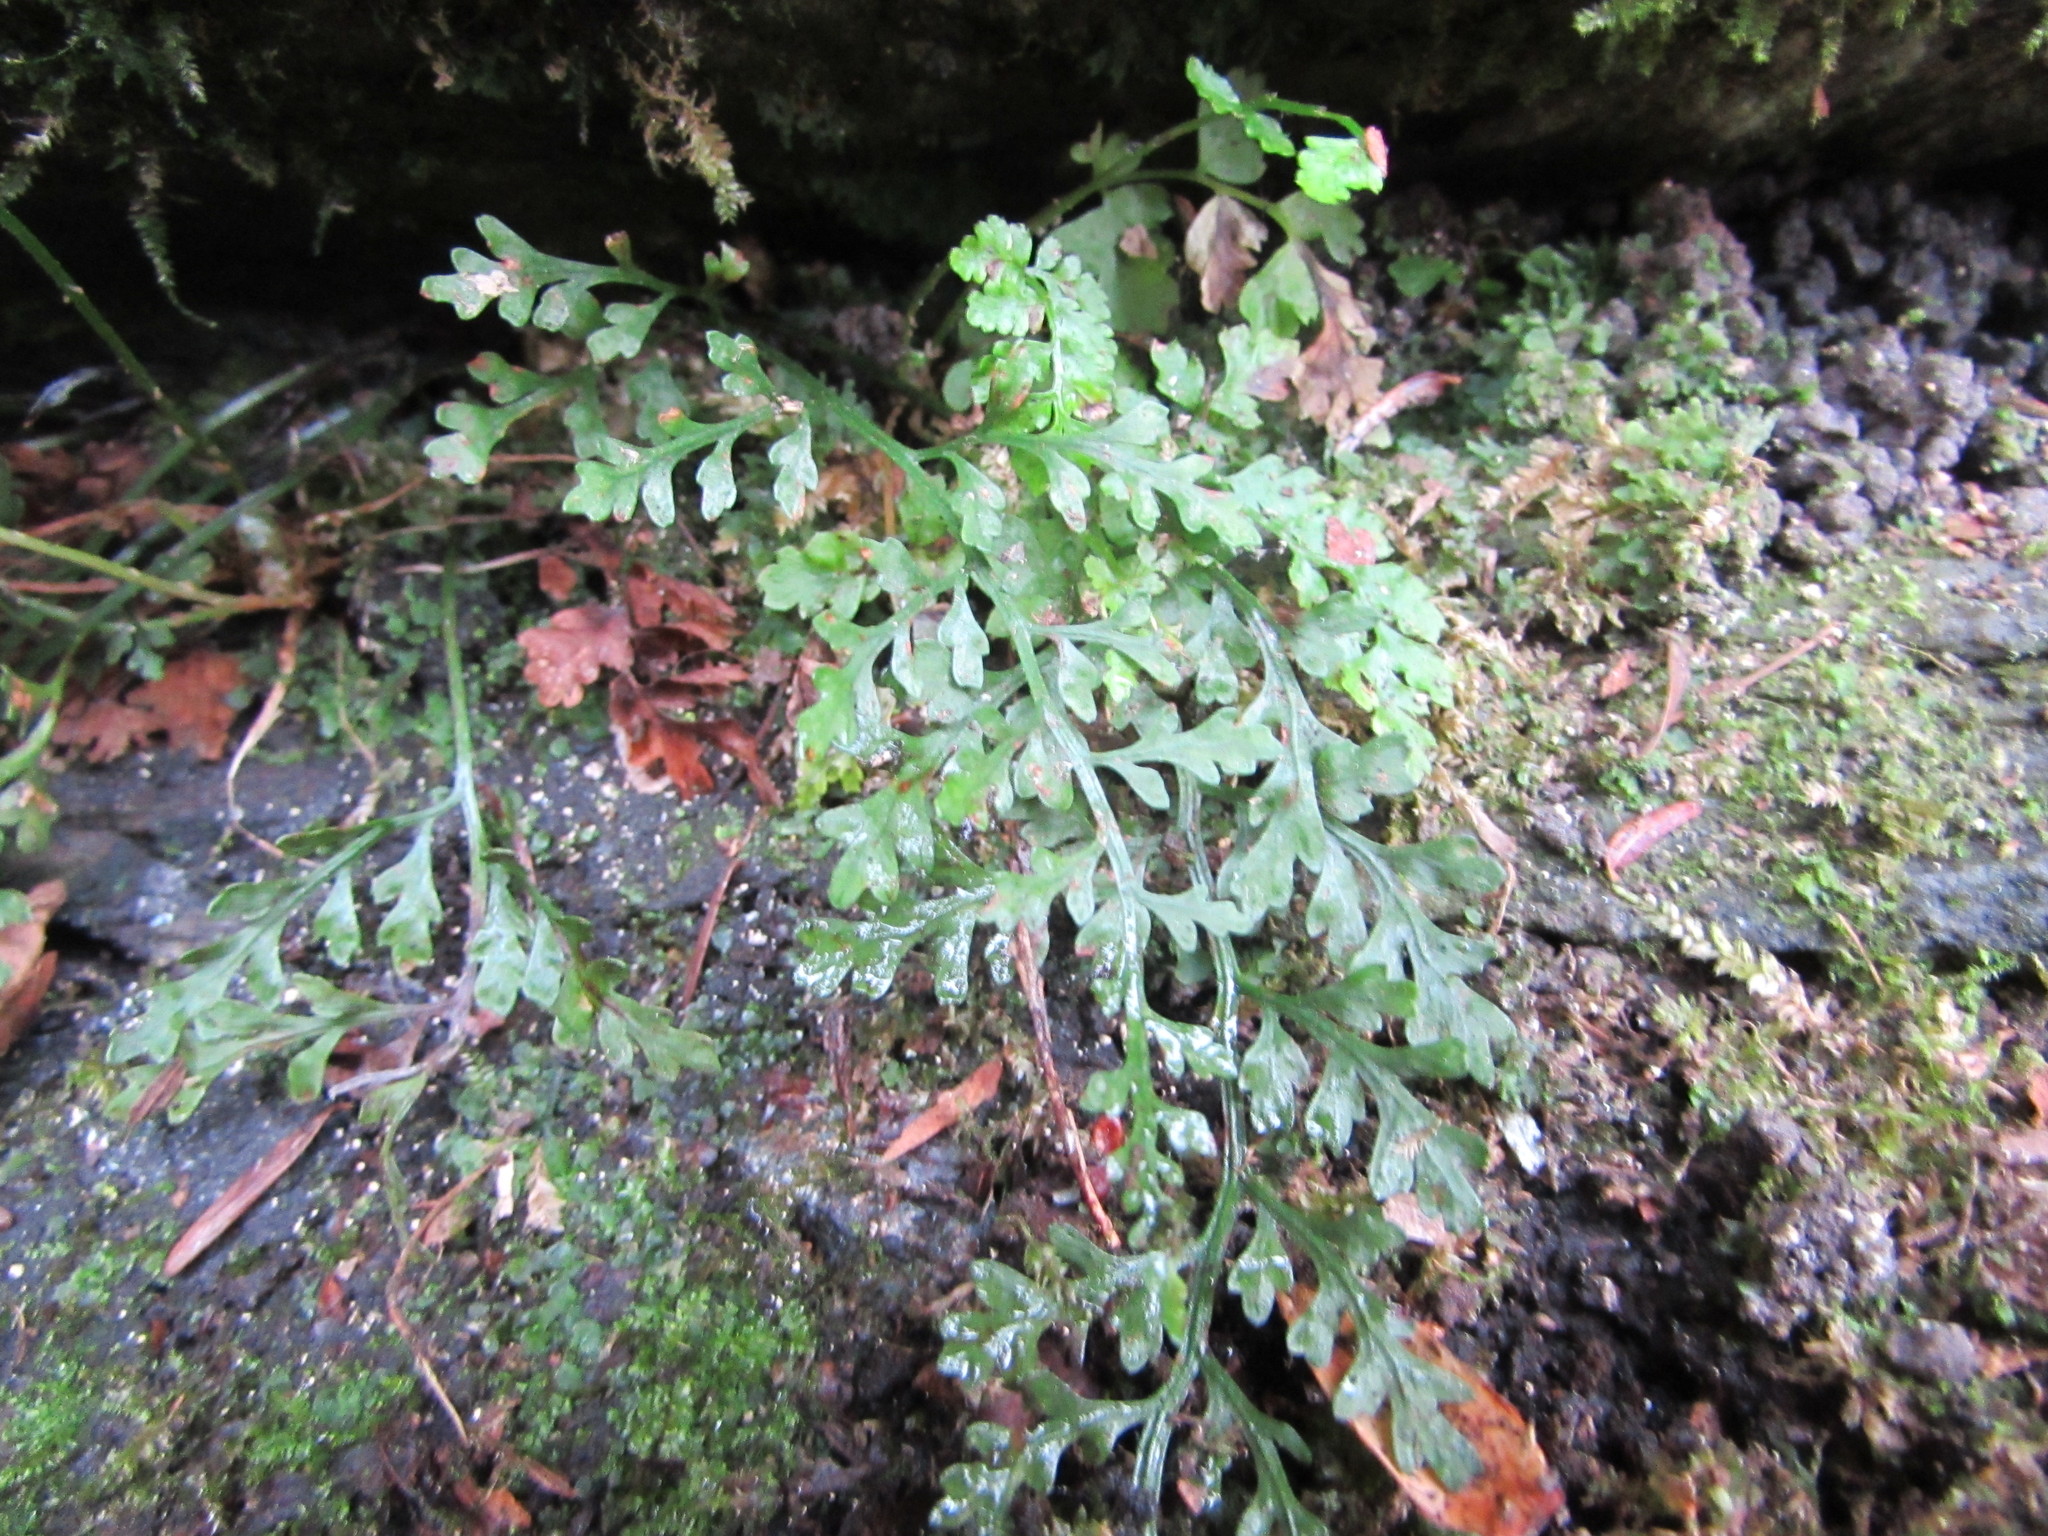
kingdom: Plantae
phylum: Tracheophyta
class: Polypodiopsida
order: Polypodiales
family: Aspleniaceae
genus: Asplenium
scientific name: Asplenium montanum
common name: Mountain spleenwort
